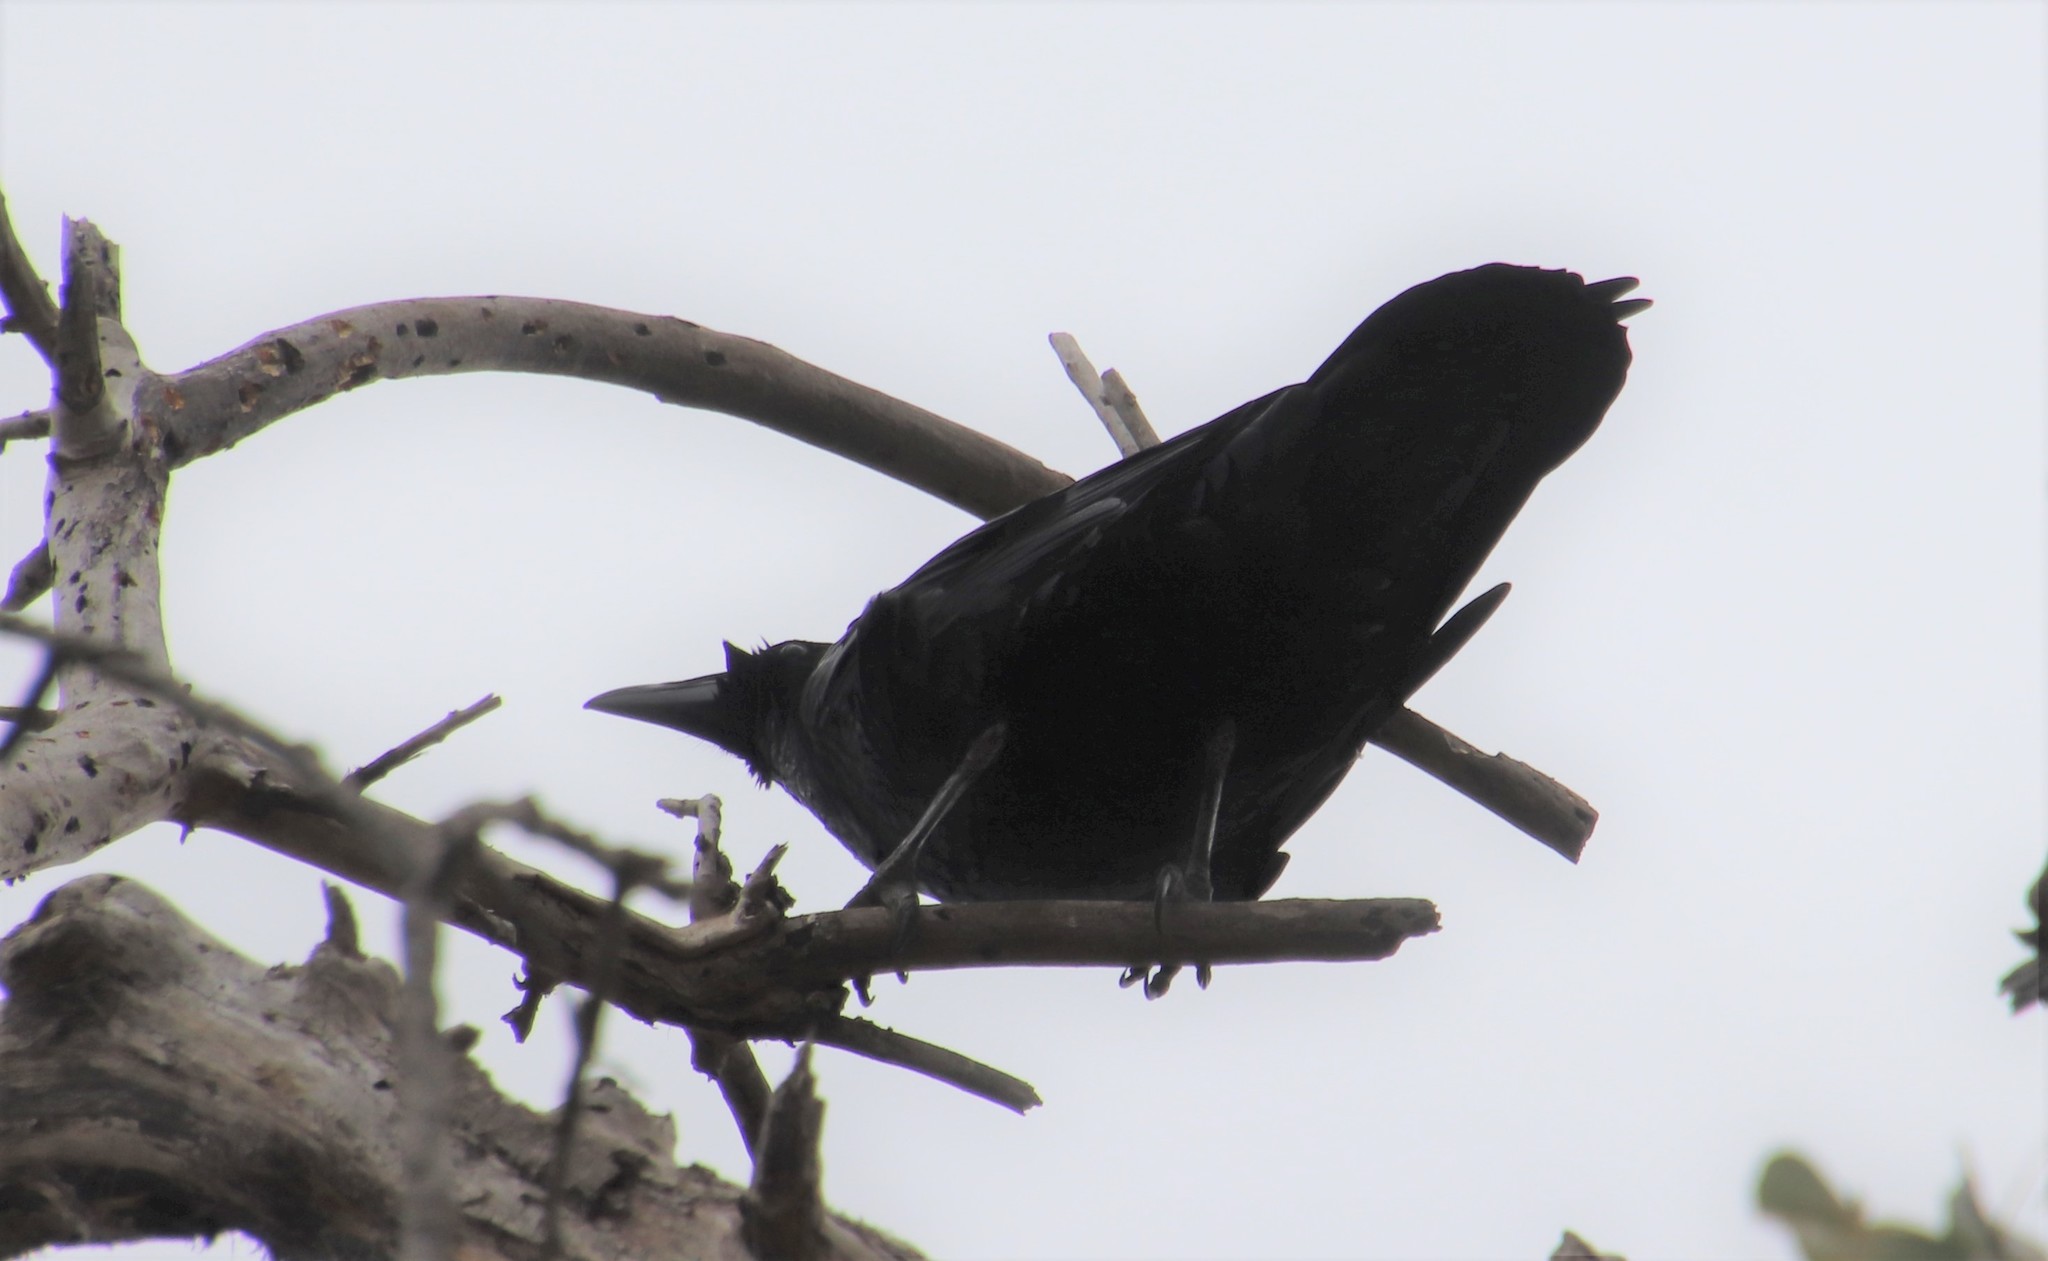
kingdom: Animalia
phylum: Chordata
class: Aves
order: Passeriformes
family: Corvidae
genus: Corvus
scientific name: Corvus corax
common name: Common raven
